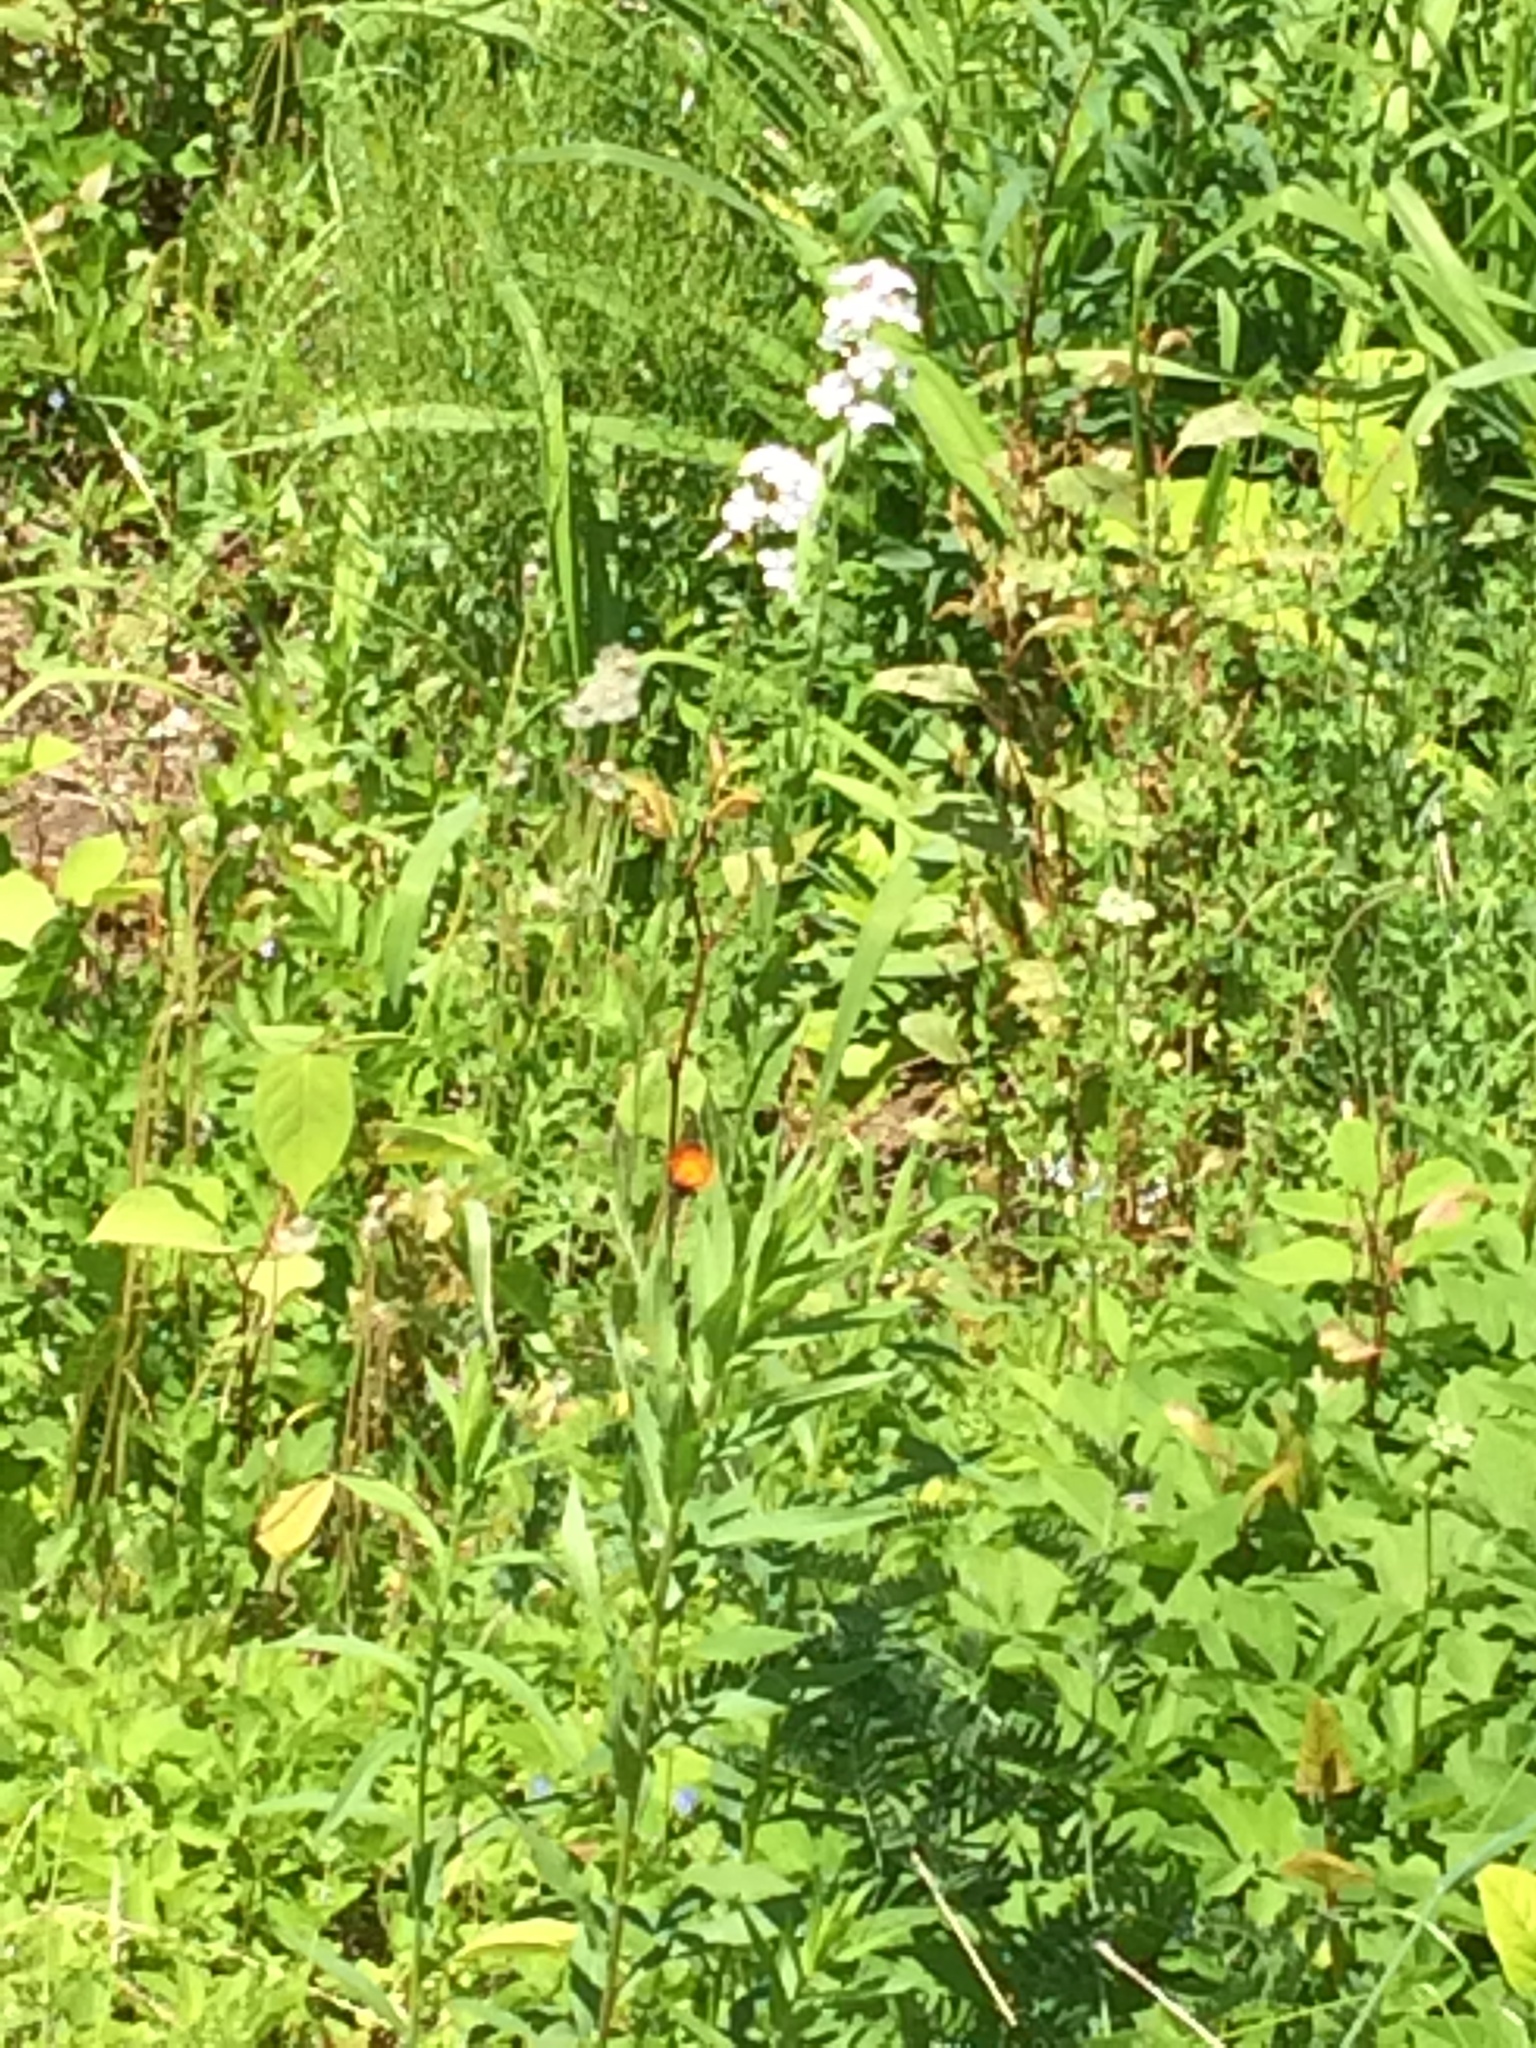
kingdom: Plantae
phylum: Tracheophyta
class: Magnoliopsida
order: Brassicales
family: Brassicaceae
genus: Hesperis
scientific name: Hesperis matronalis
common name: Dame's-violet
